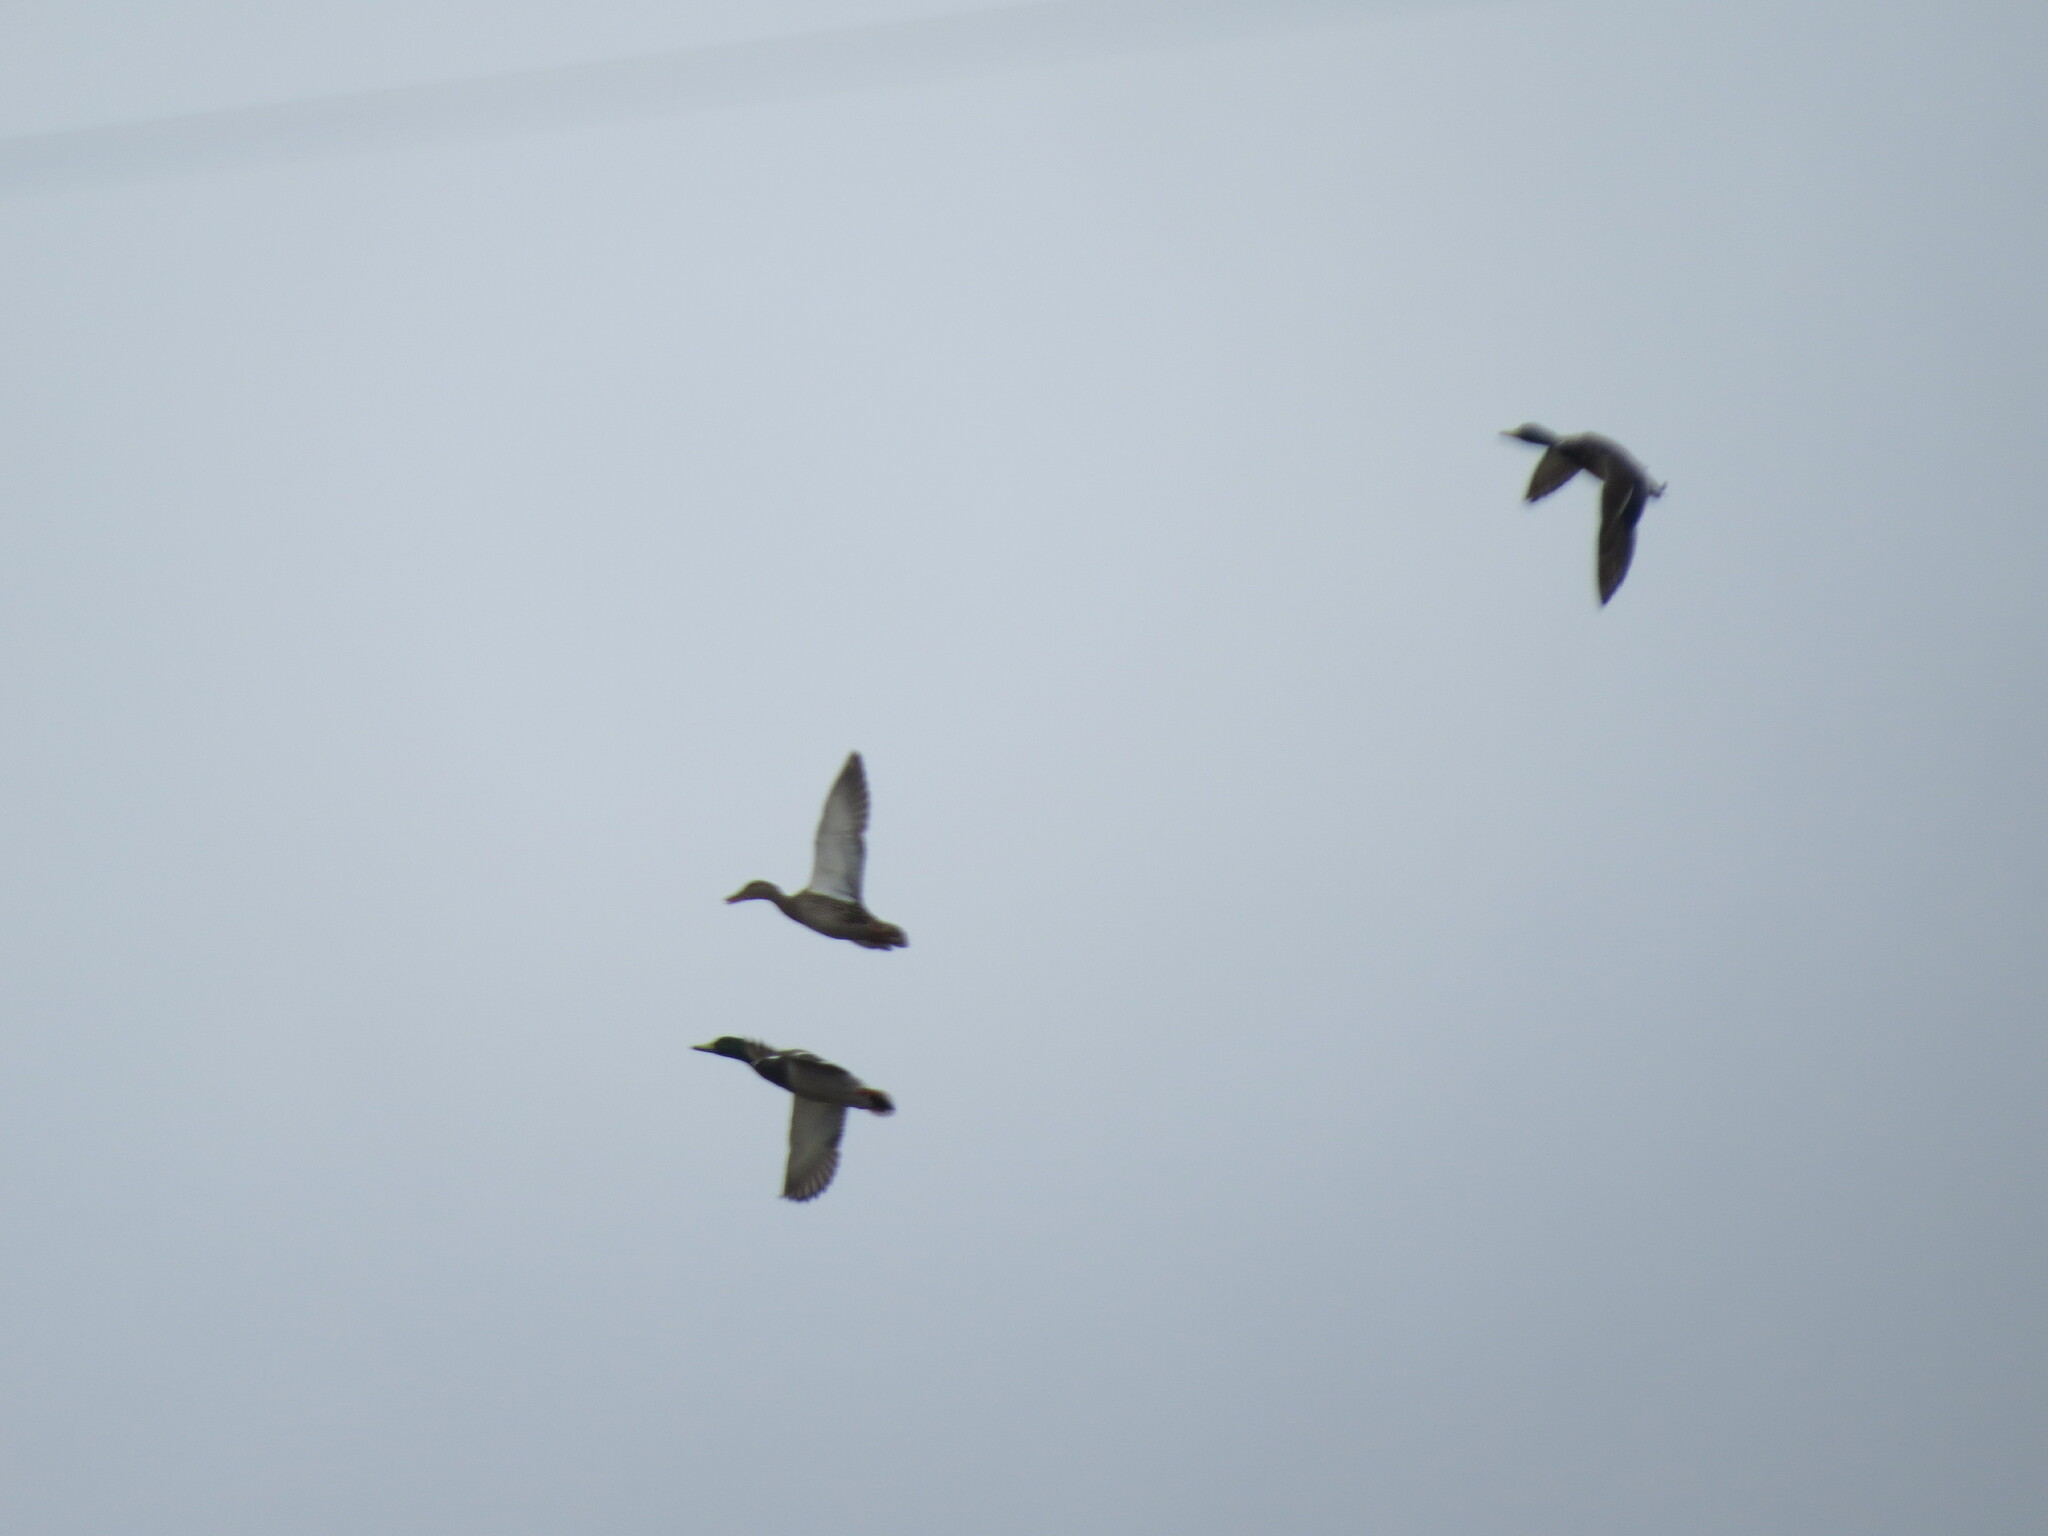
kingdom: Animalia
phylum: Chordata
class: Aves
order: Anseriformes
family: Anatidae
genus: Anas
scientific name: Anas platyrhynchos
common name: Mallard
